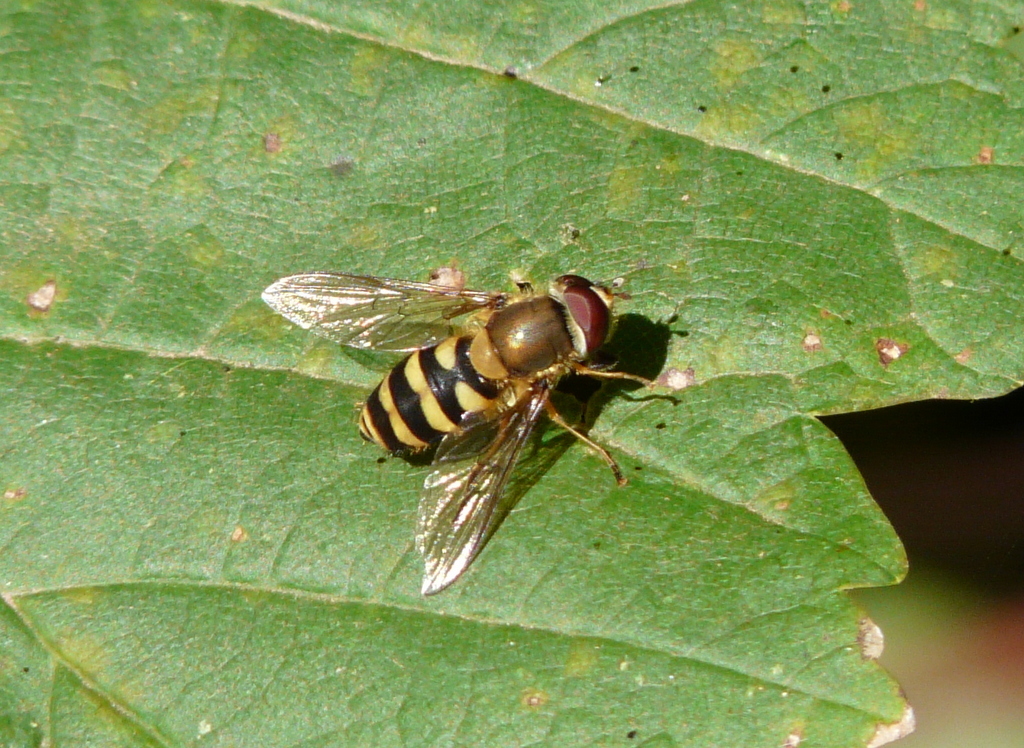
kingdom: Animalia
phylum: Arthropoda
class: Insecta
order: Diptera
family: Syrphidae
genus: Syrphus
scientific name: Syrphus
